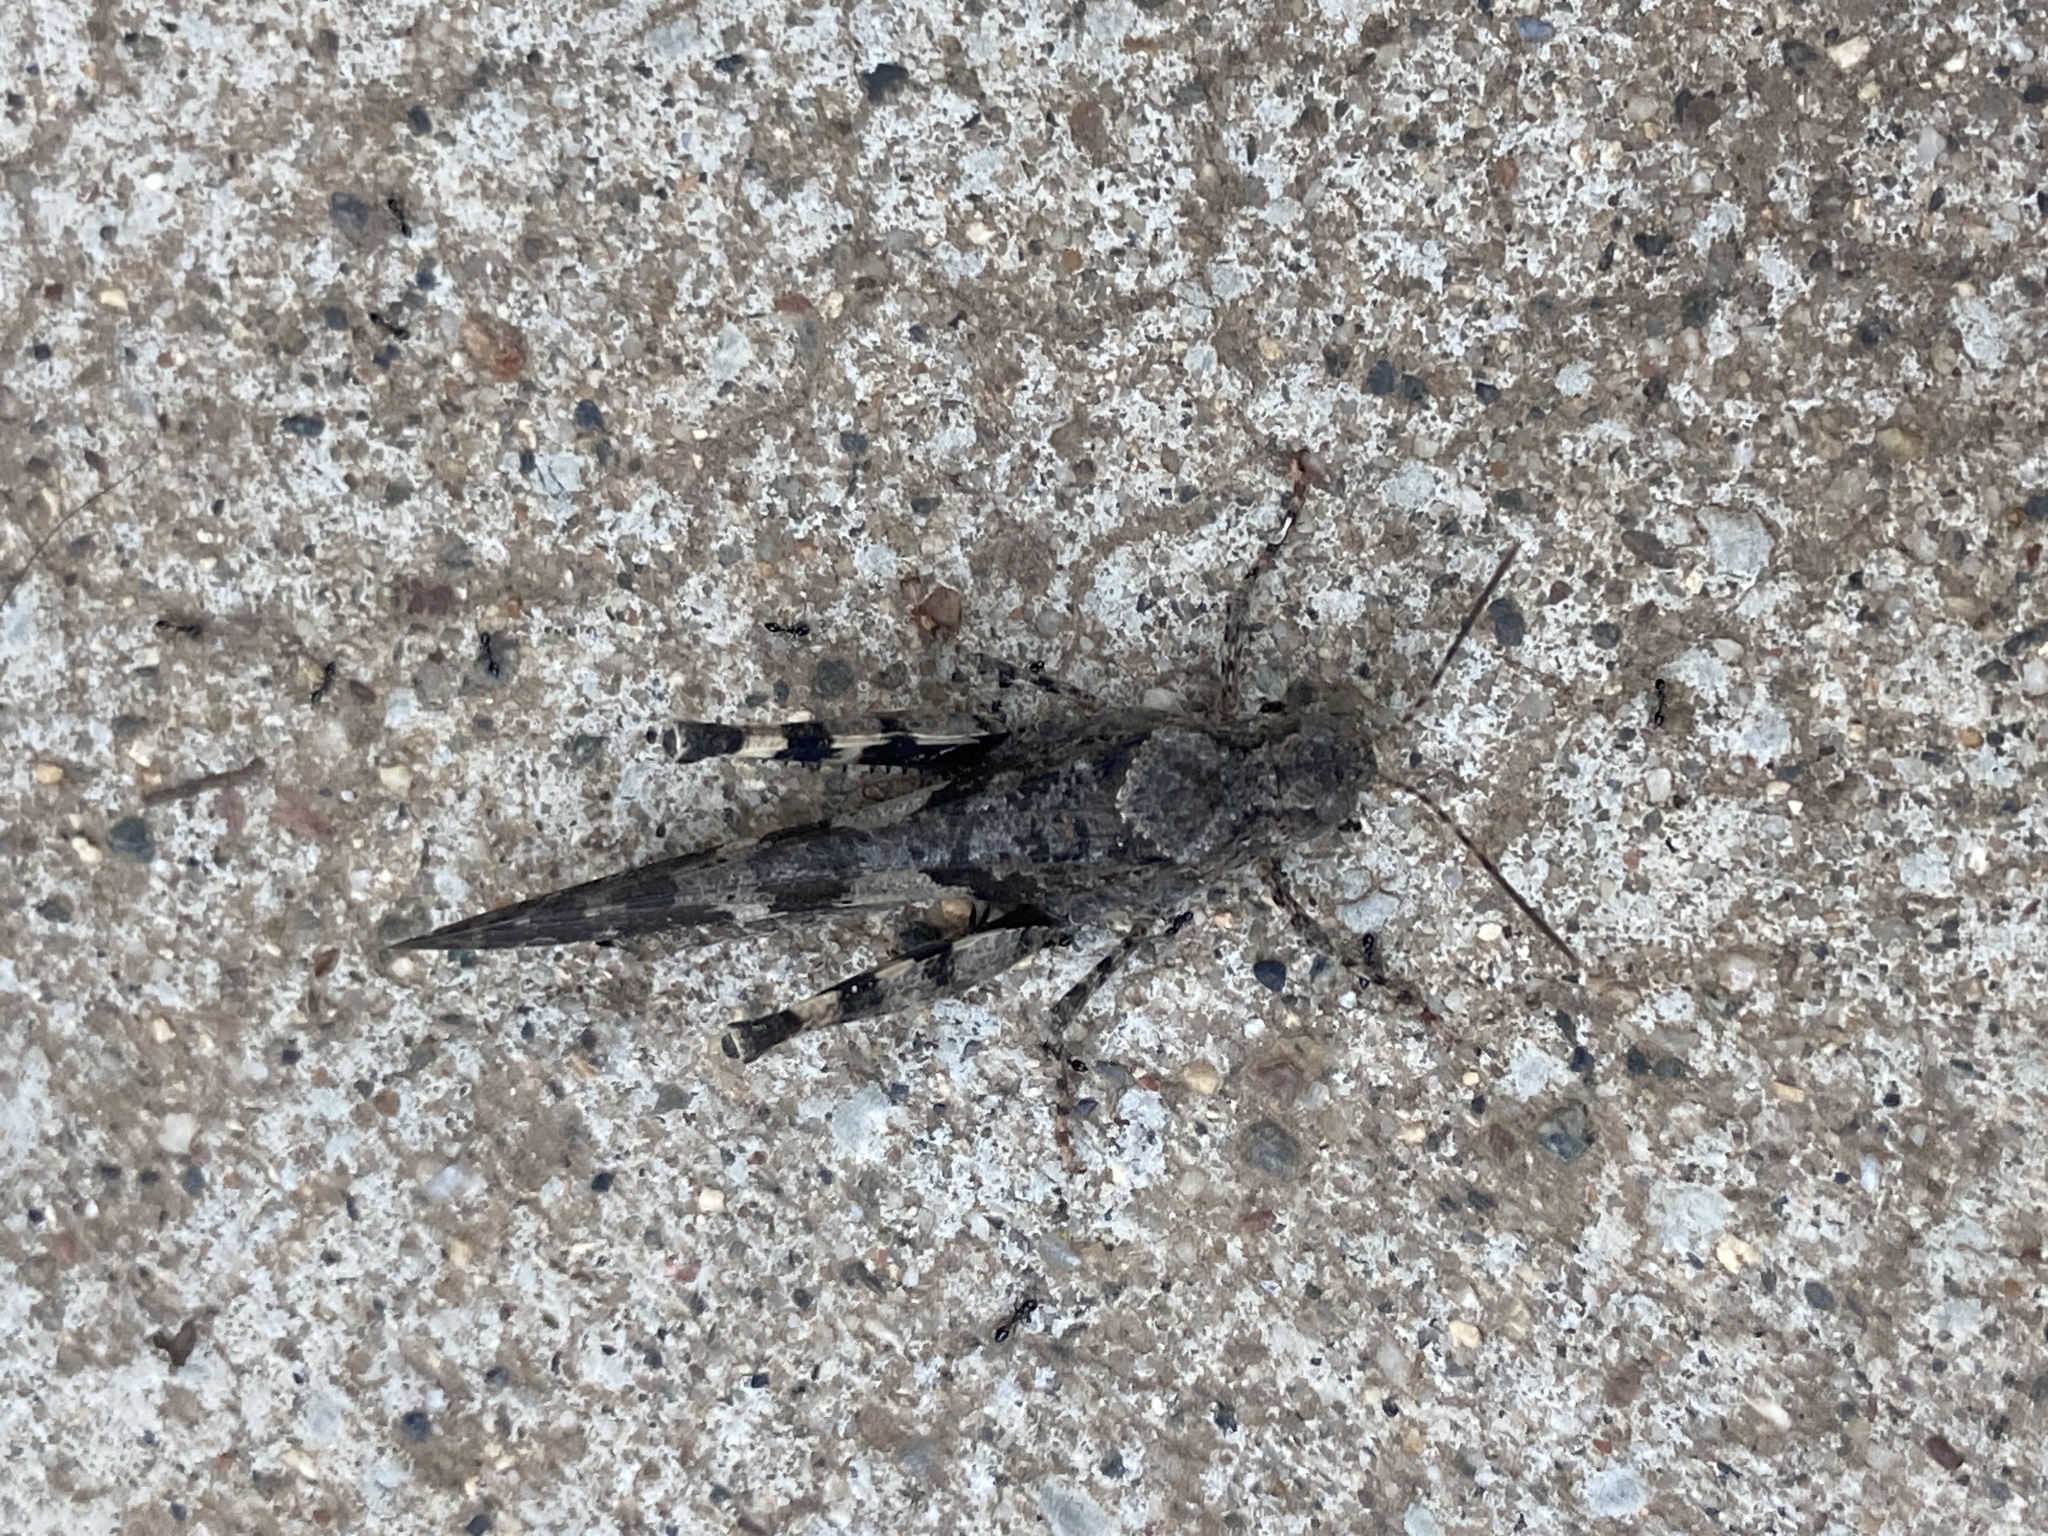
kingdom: Animalia
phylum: Arthropoda
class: Insecta
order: Orthoptera
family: Acrididae
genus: Trimerotropis
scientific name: Trimerotropis fontana
